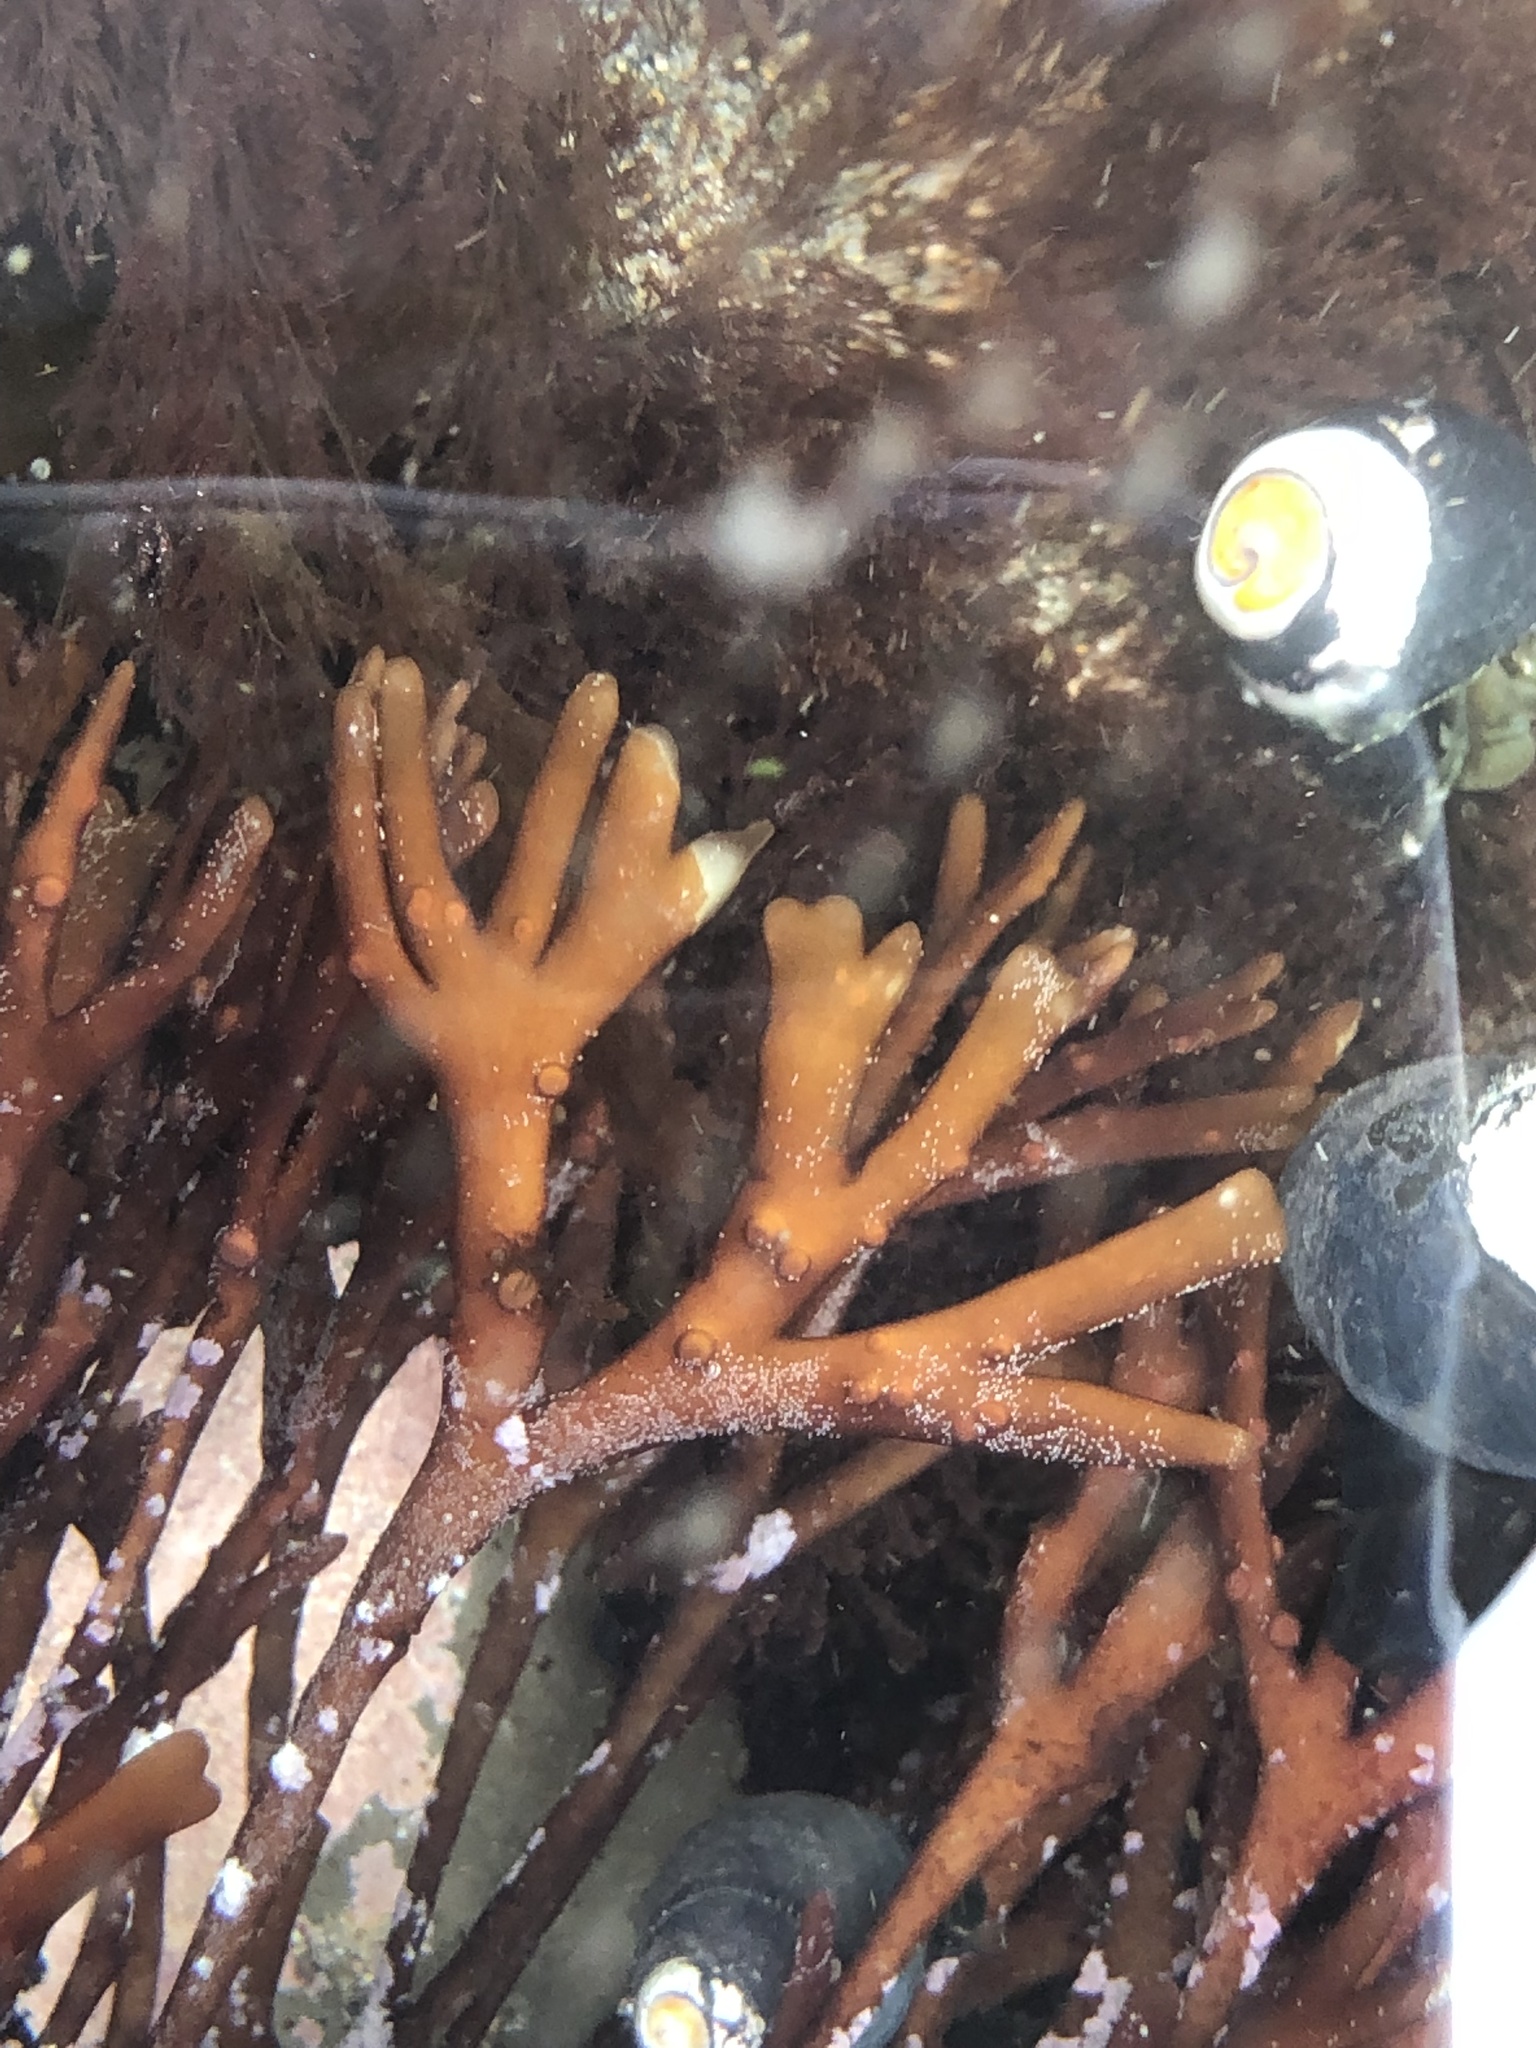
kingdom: Plantae
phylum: Rhodophyta
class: Florideophyceae
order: Gigartinales
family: Phyllophoraceae
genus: Ahnfeltiopsis
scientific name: Ahnfeltiopsis linearis
